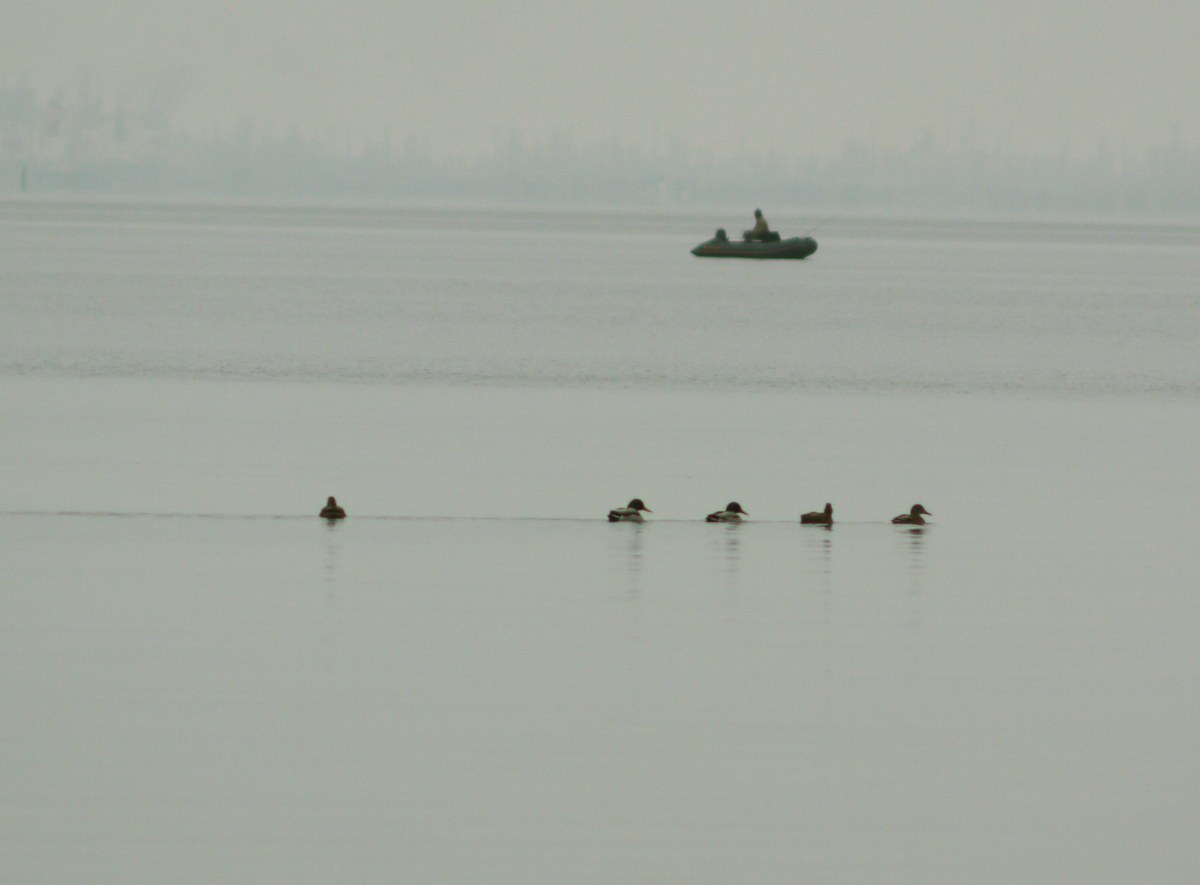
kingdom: Animalia
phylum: Chordata
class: Aves
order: Anseriformes
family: Anatidae
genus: Anas
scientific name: Anas platyrhynchos
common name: Mallard
